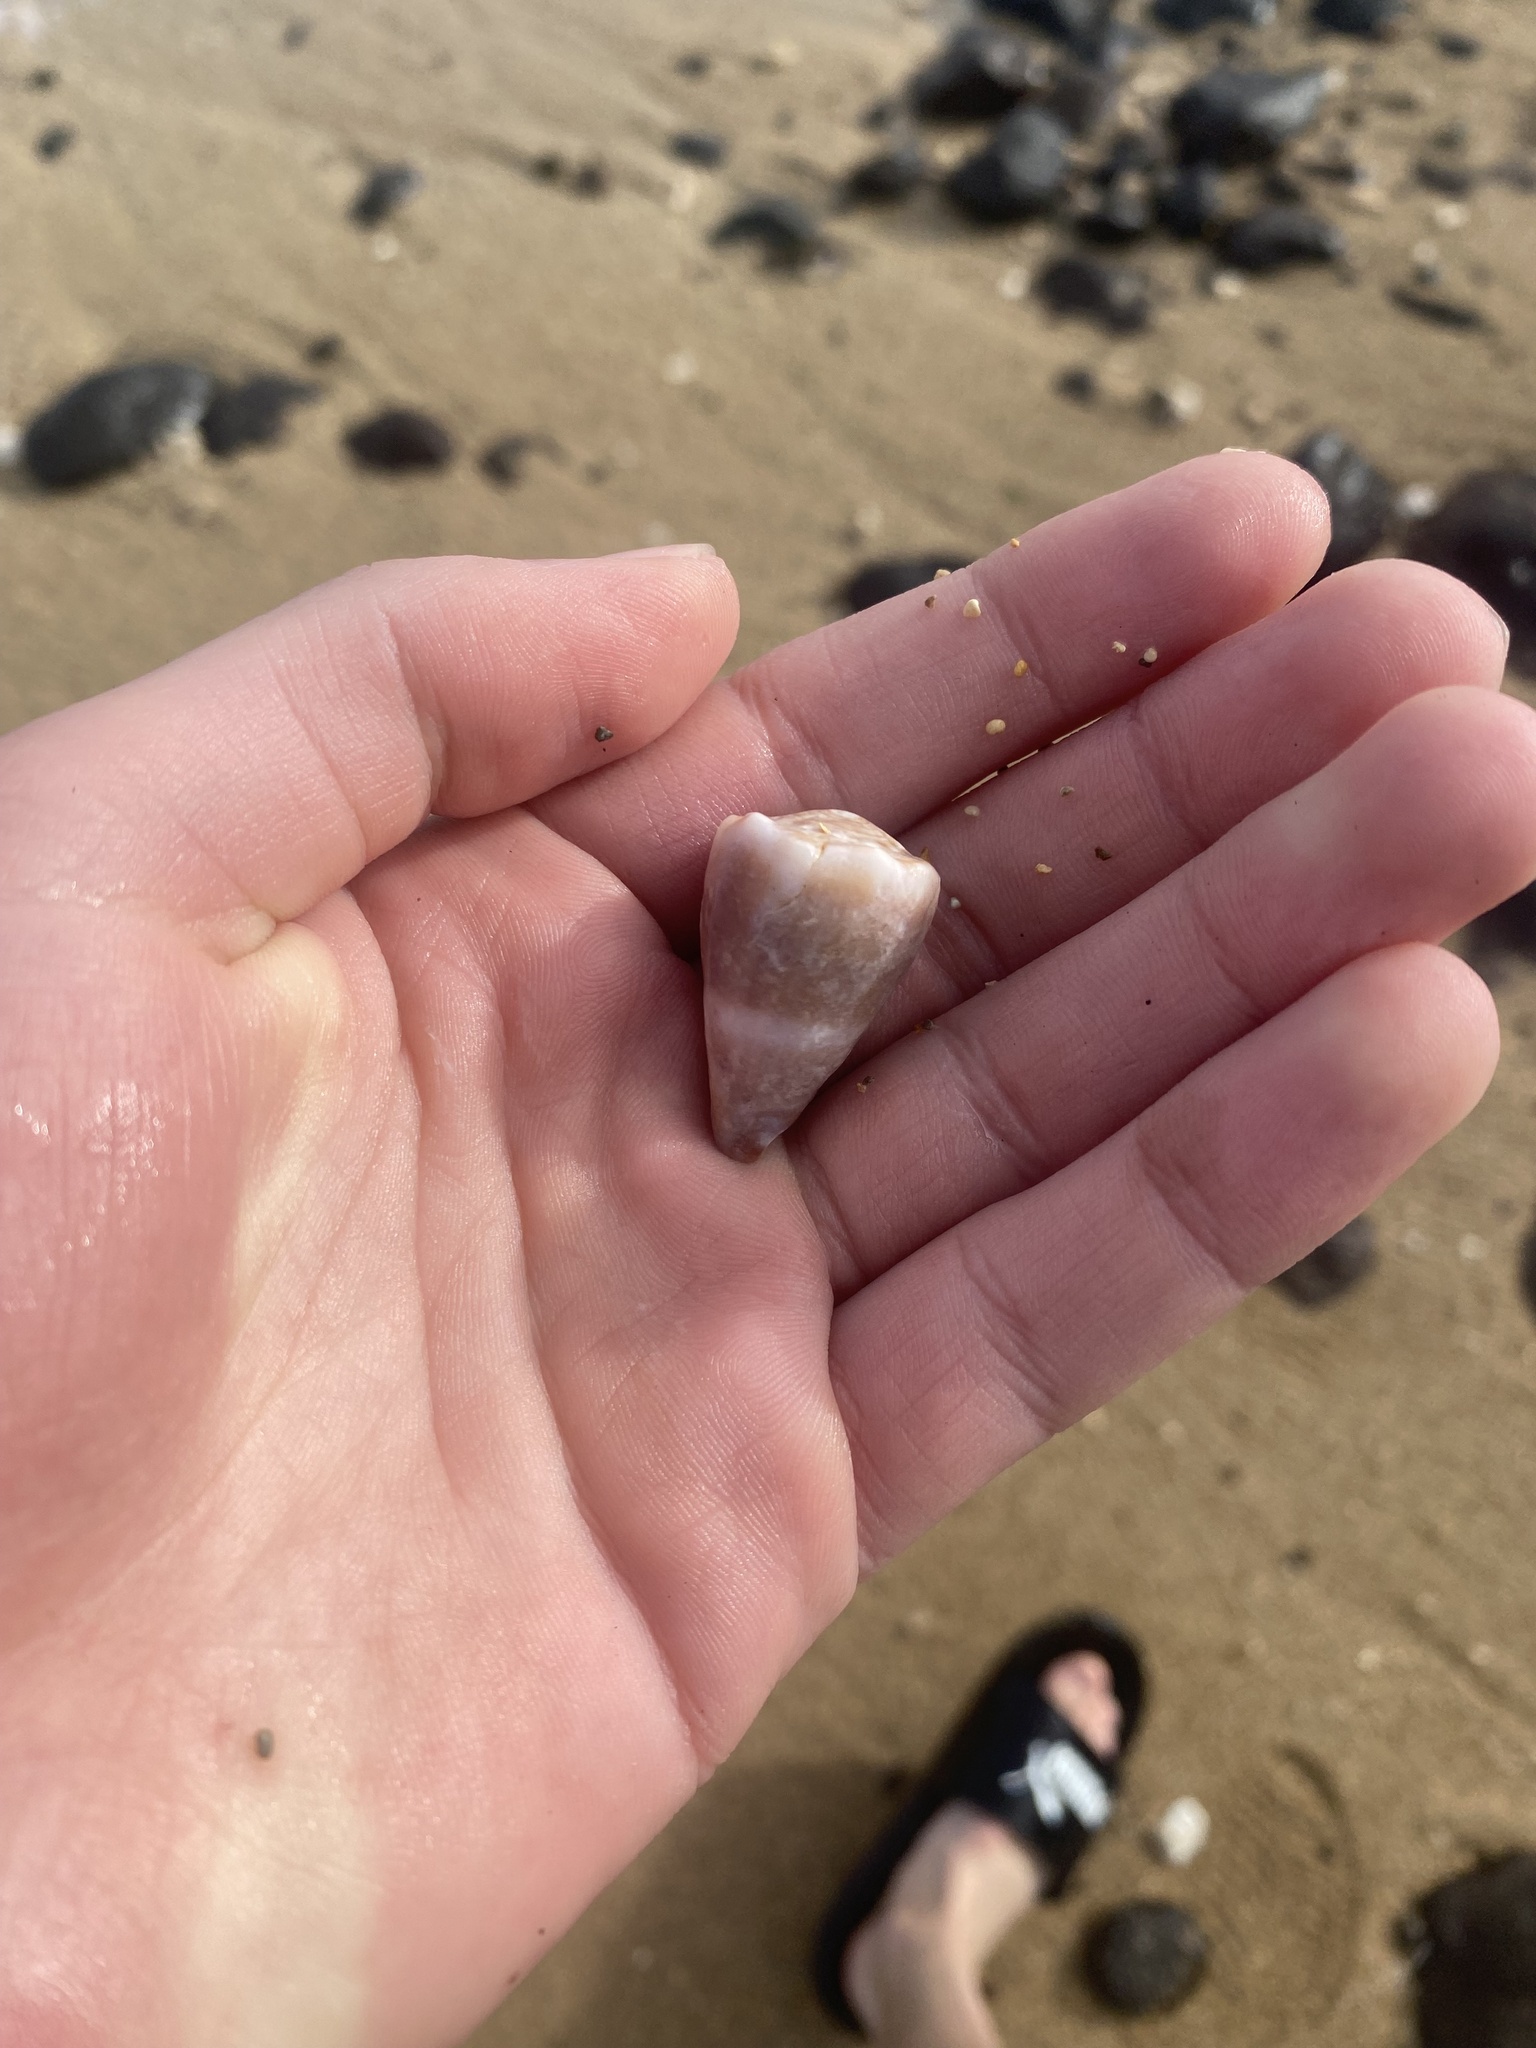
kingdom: Animalia
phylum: Mollusca
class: Gastropoda
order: Neogastropoda
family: Conidae
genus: Conus
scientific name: Conus lividus
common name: Livid cone
